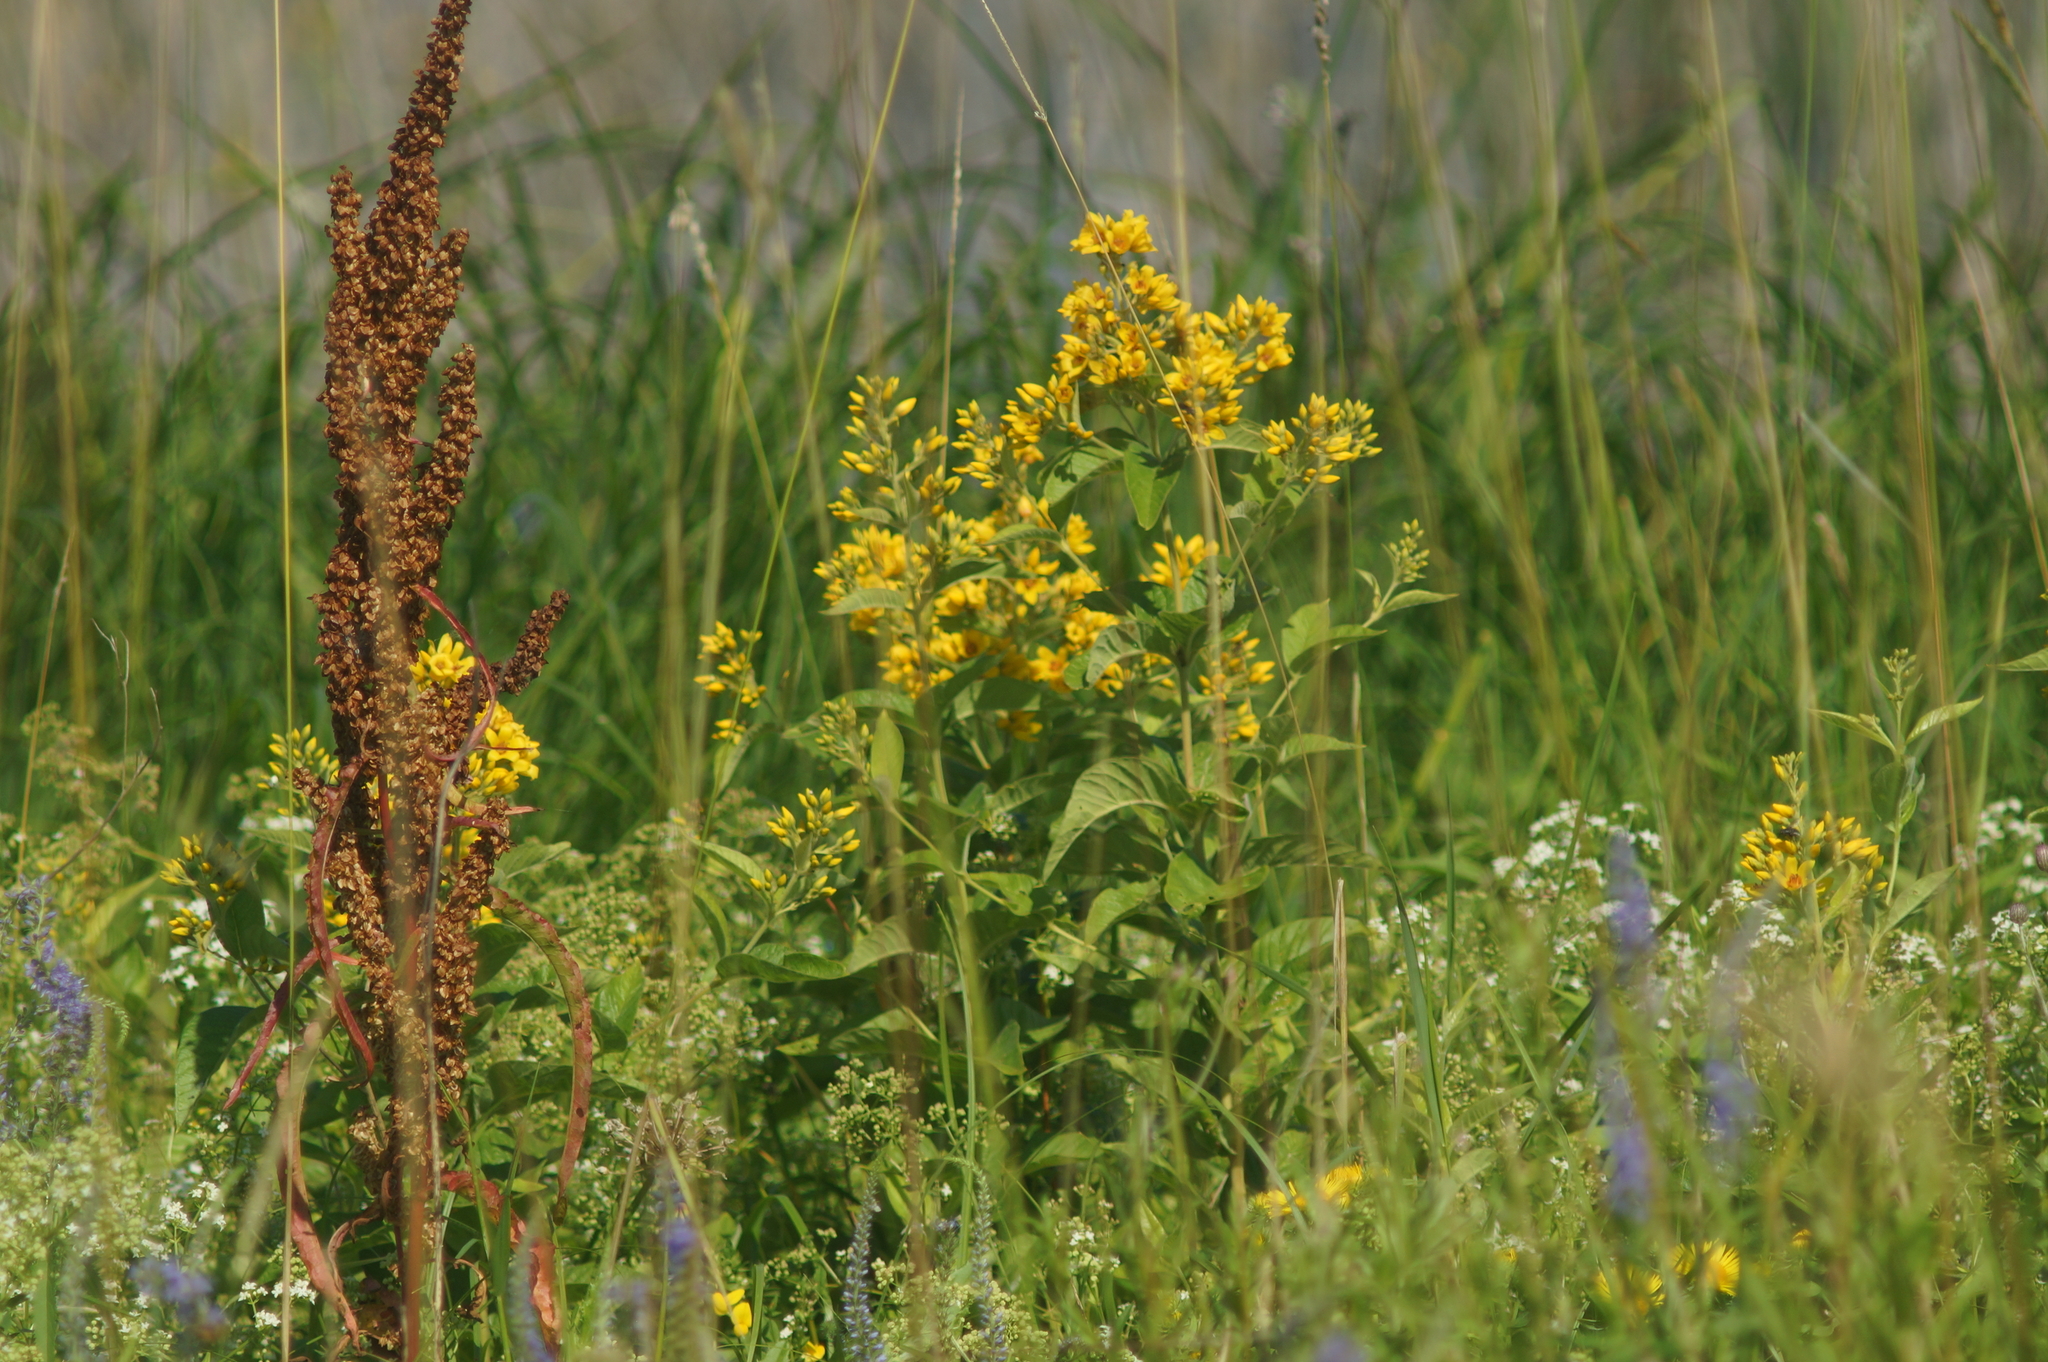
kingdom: Plantae
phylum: Tracheophyta
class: Magnoliopsida
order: Ericales
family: Primulaceae
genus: Lysimachia
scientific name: Lysimachia vulgaris
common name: Yellow loosestrife
